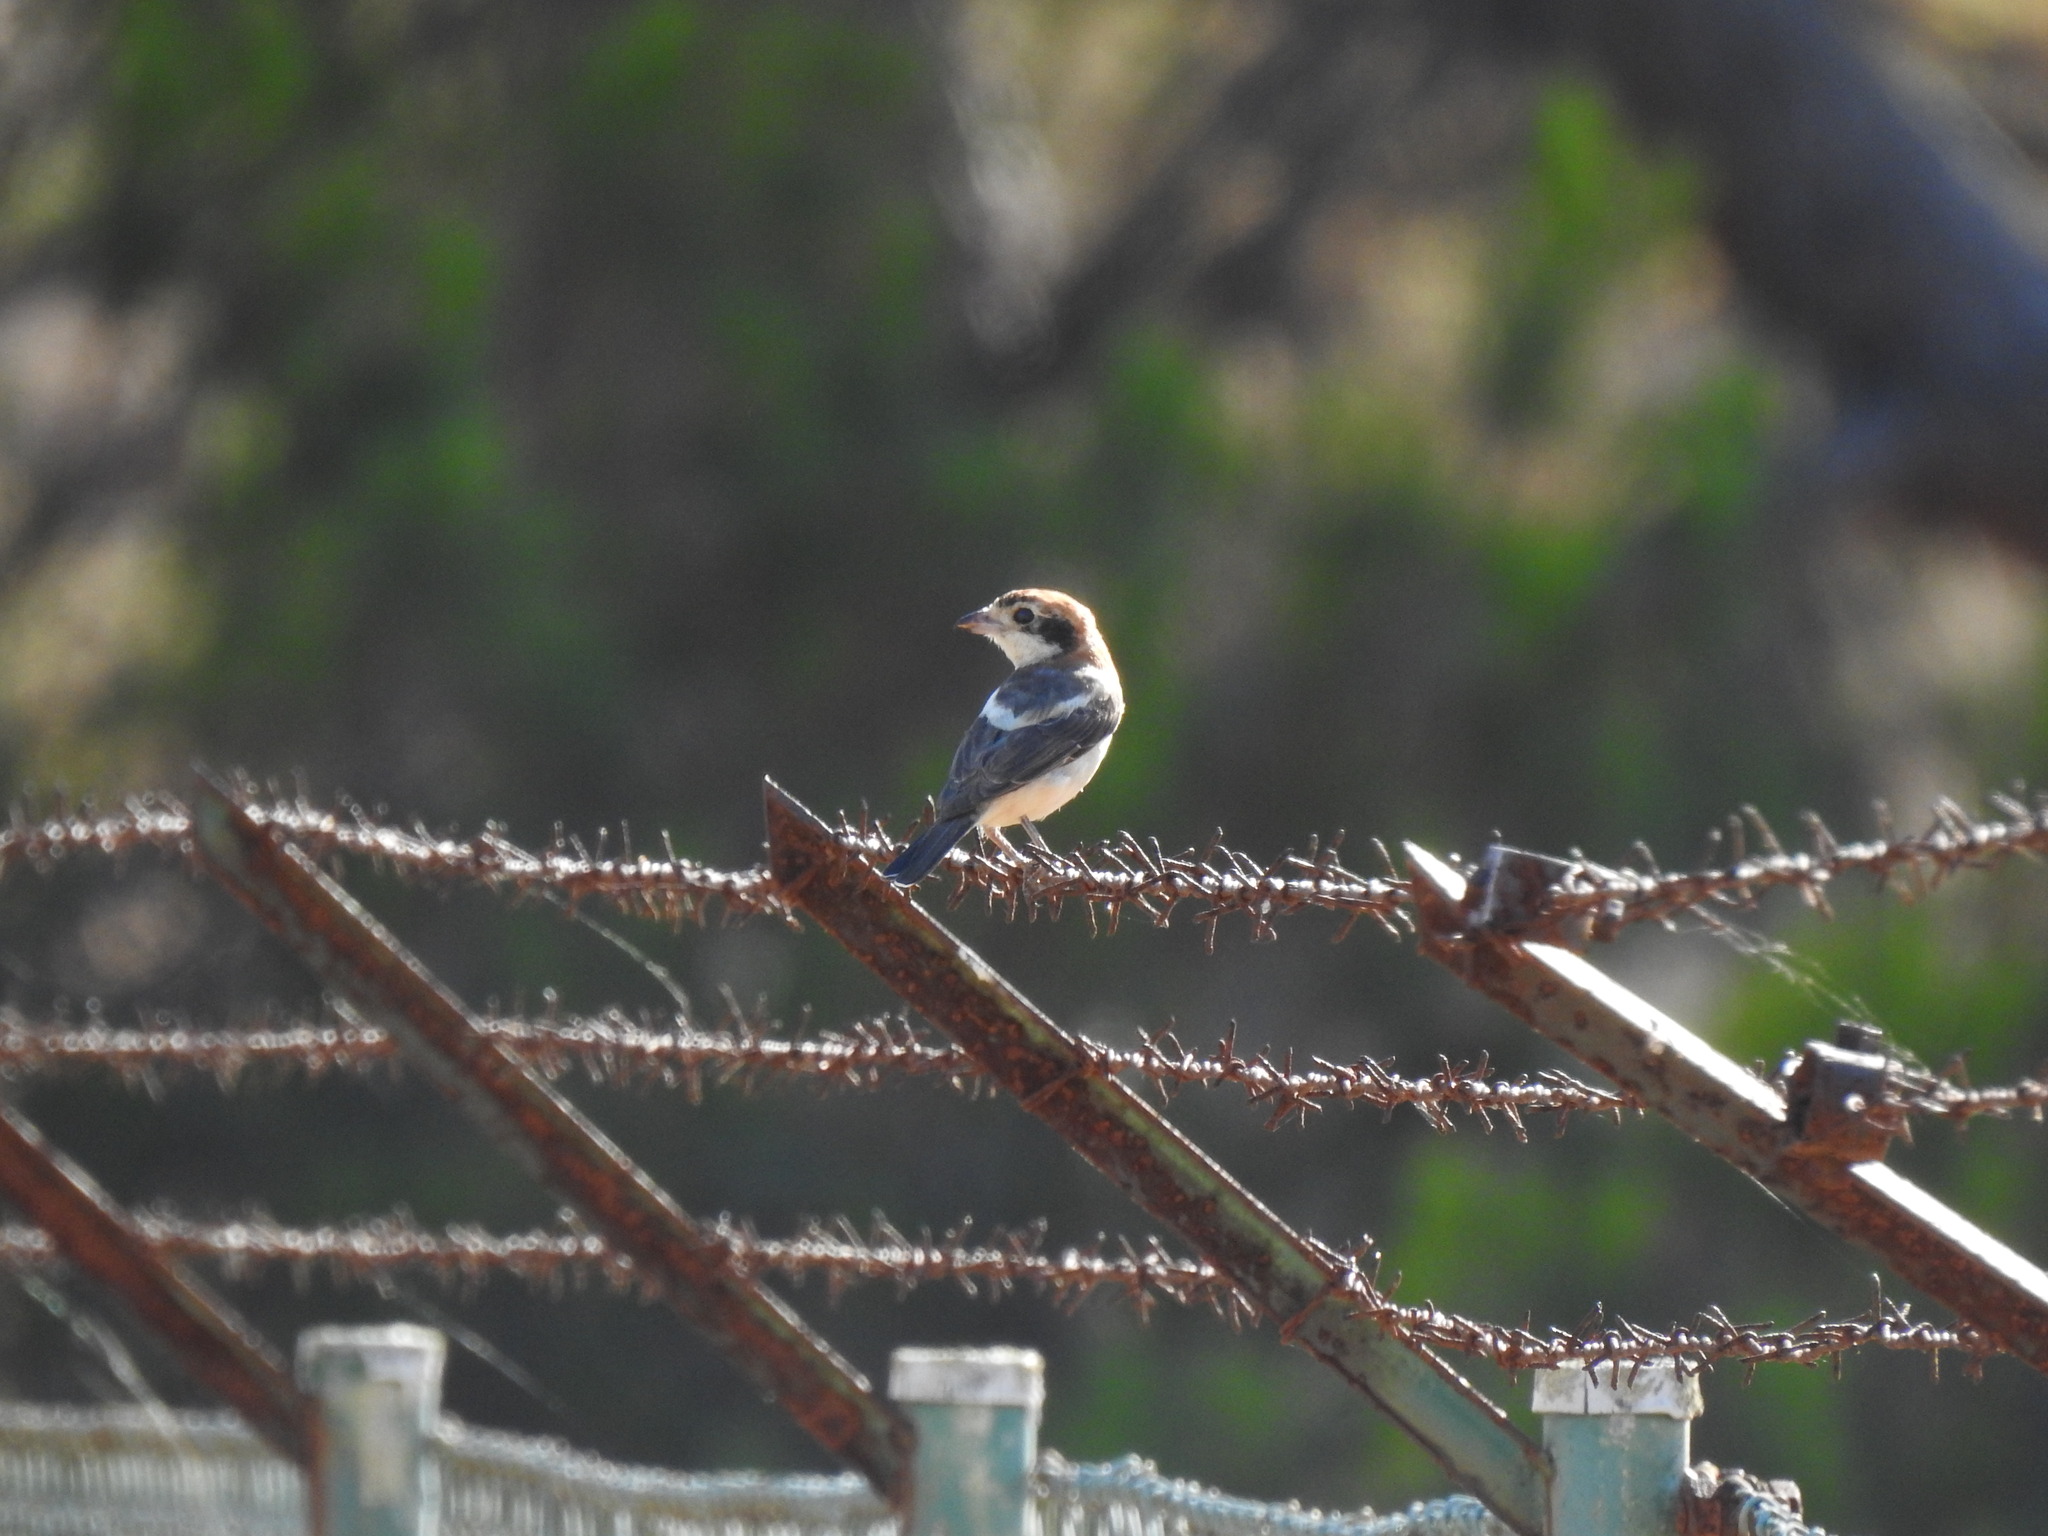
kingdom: Animalia
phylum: Chordata
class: Aves
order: Passeriformes
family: Laniidae
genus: Lanius
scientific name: Lanius senator
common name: Woodchat shrike
